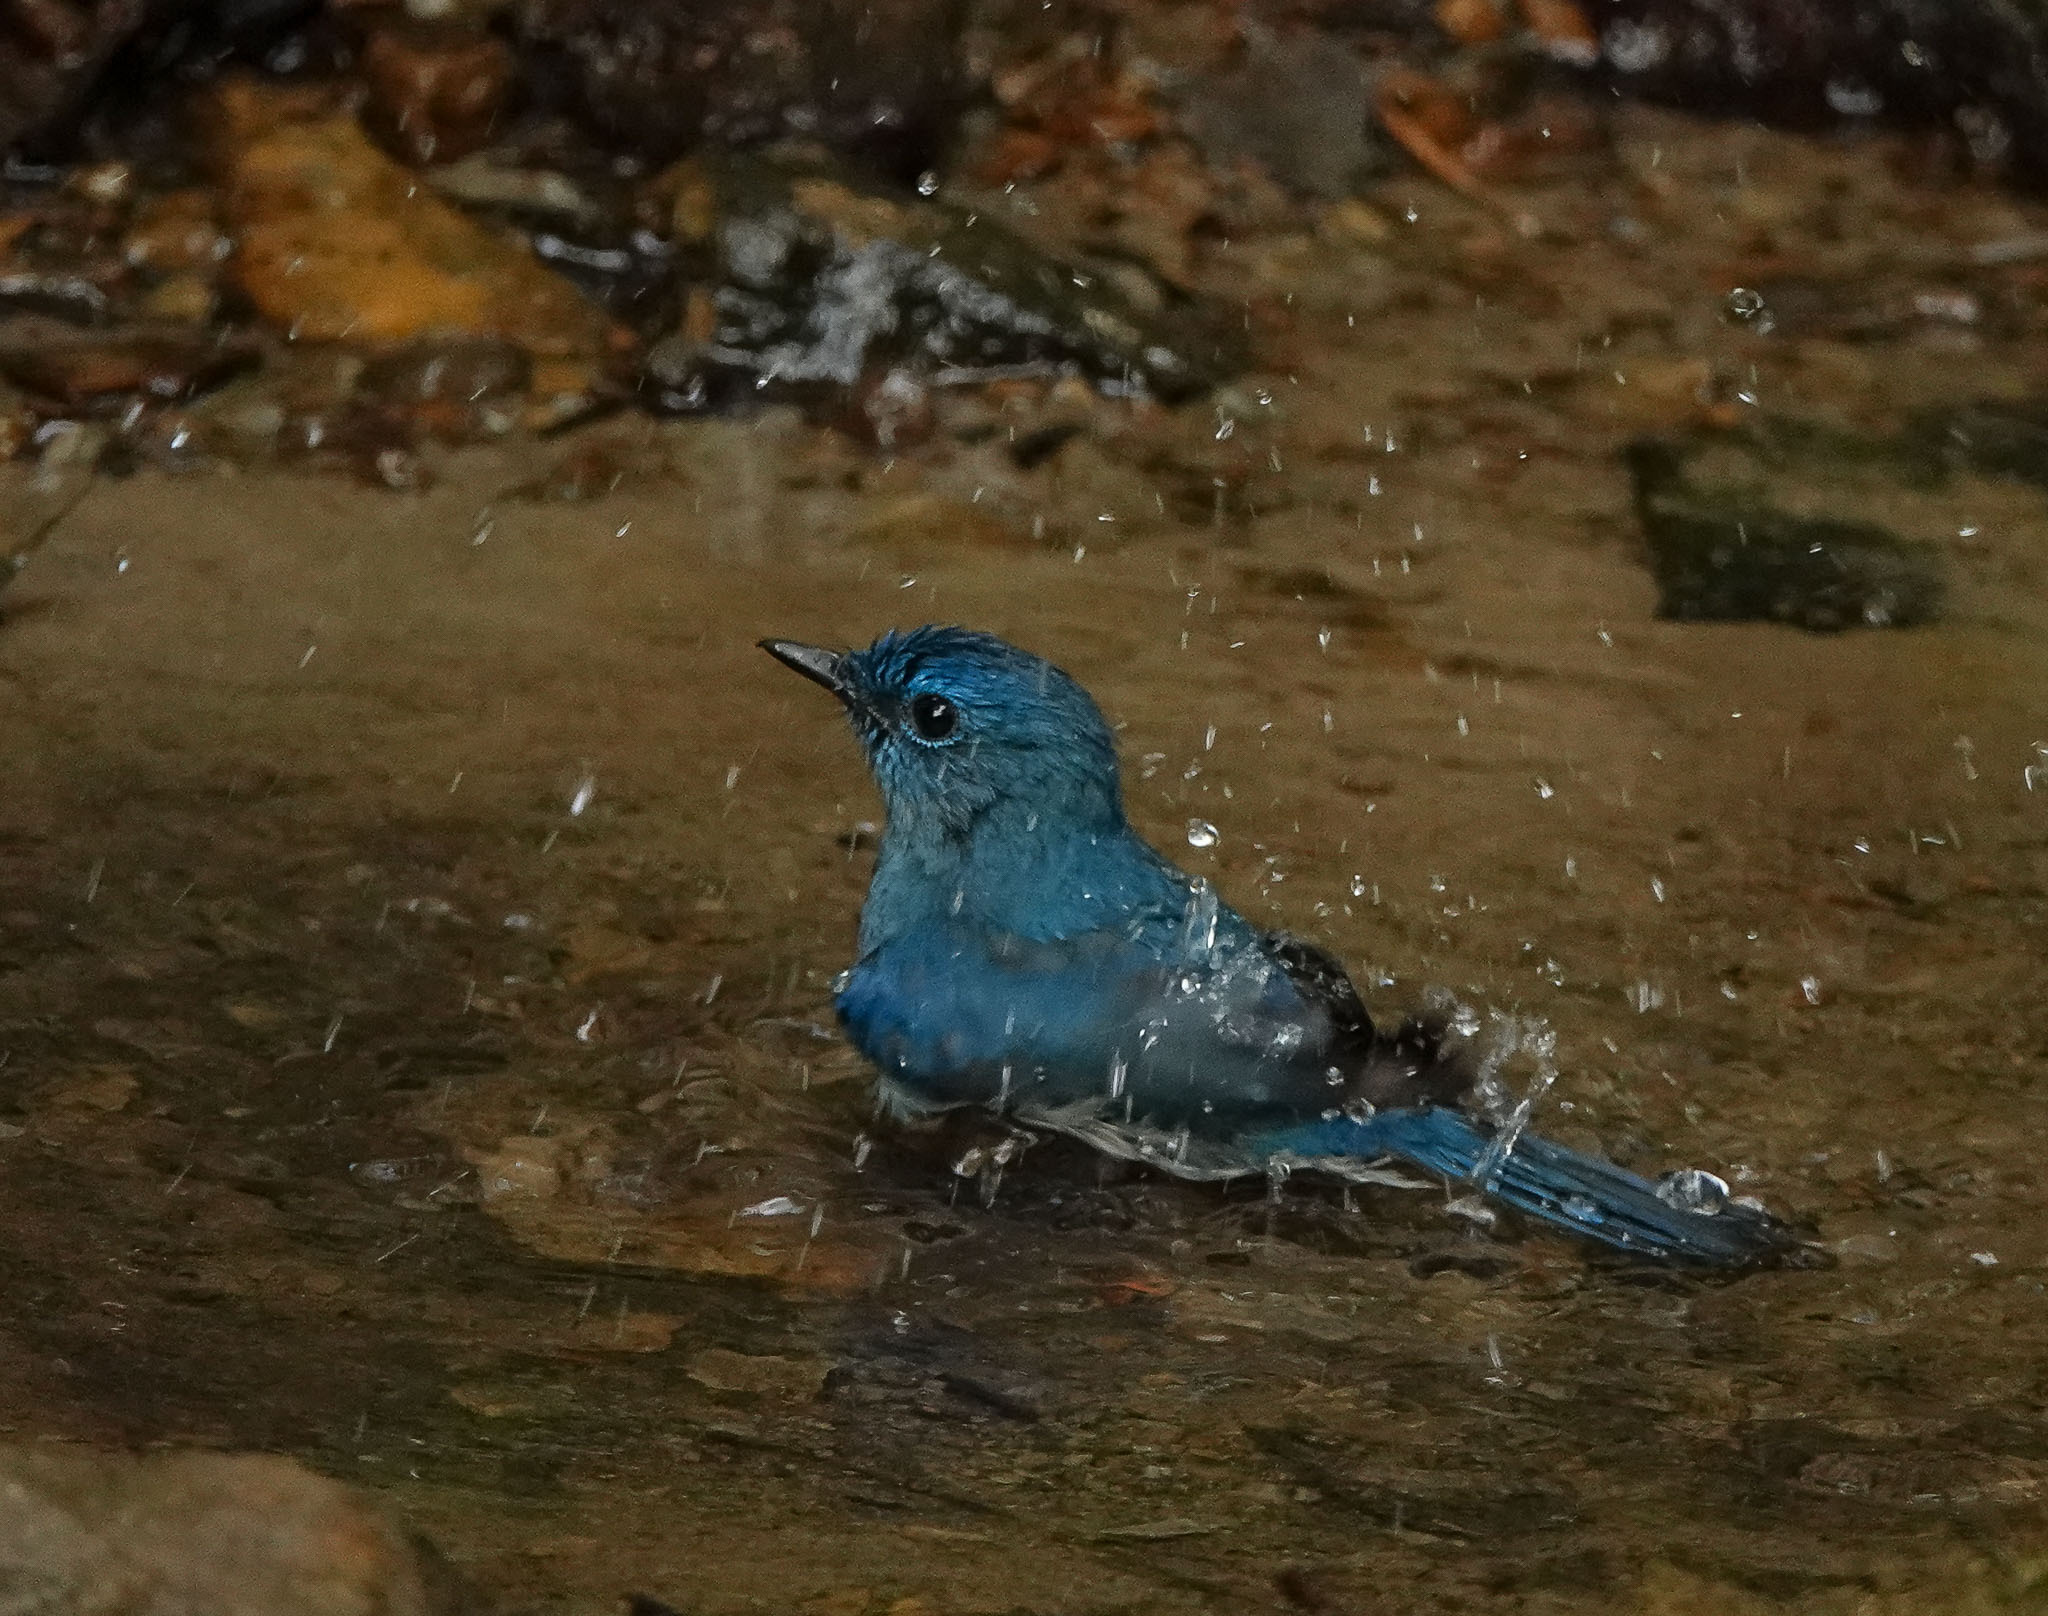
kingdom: Animalia
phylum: Chordata
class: Aves
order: Passeriformes
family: Muscicapidae
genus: Cyornis
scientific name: Cyornis unicolor
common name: Pale blue flycatcher
